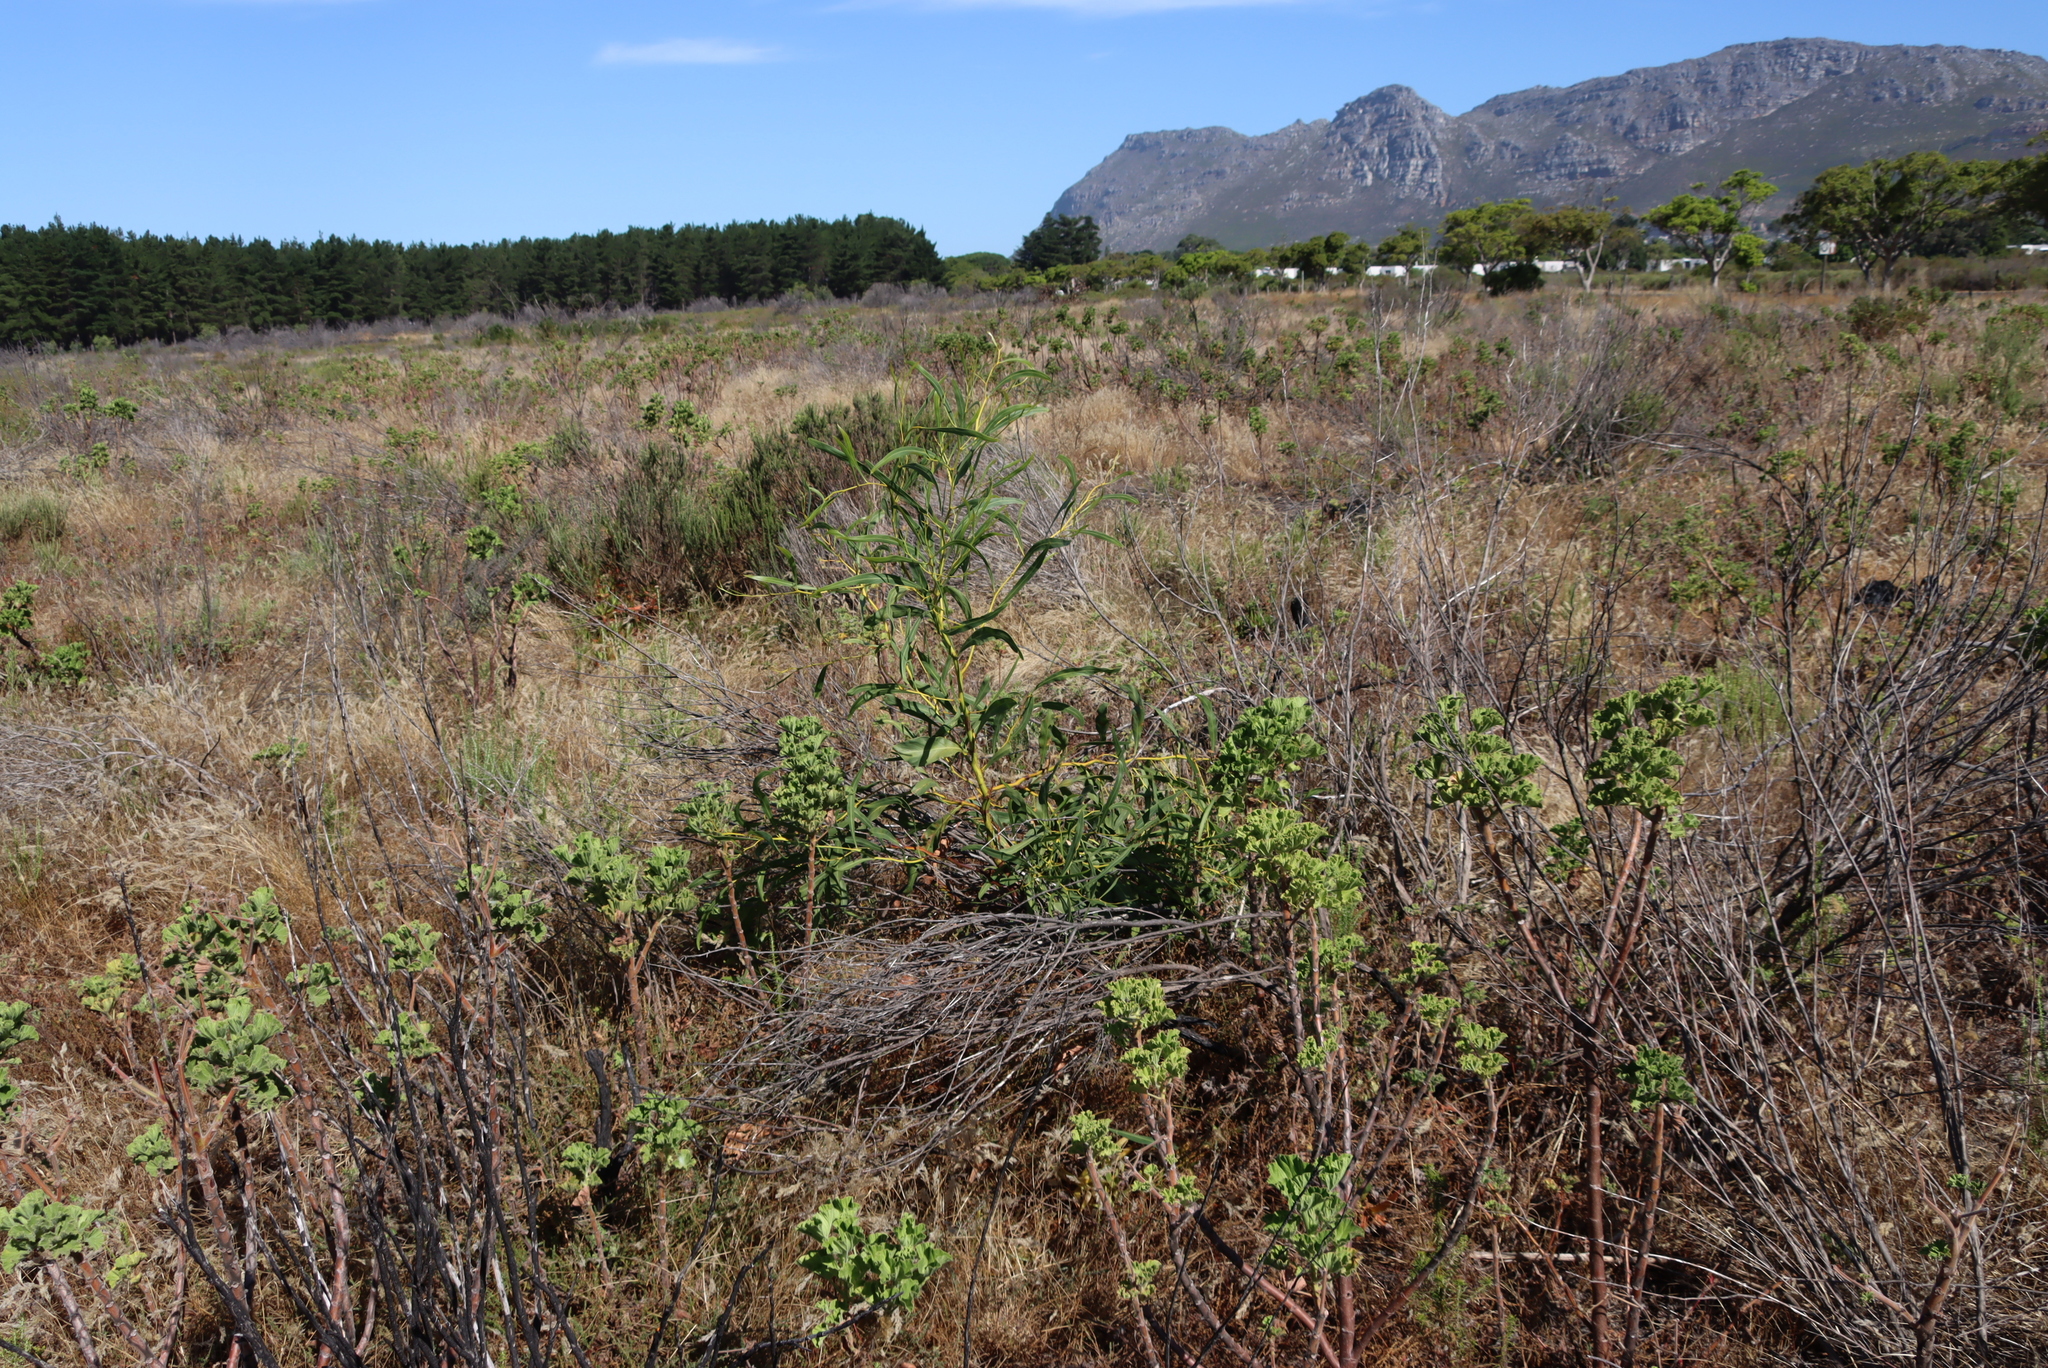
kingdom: Plantae
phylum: Tracheophyta
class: Magnoliopsida
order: Geraniales
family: Geraniaceae
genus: Pelargonium
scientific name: Pelargonium cucullatum
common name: Tree pelargonium
